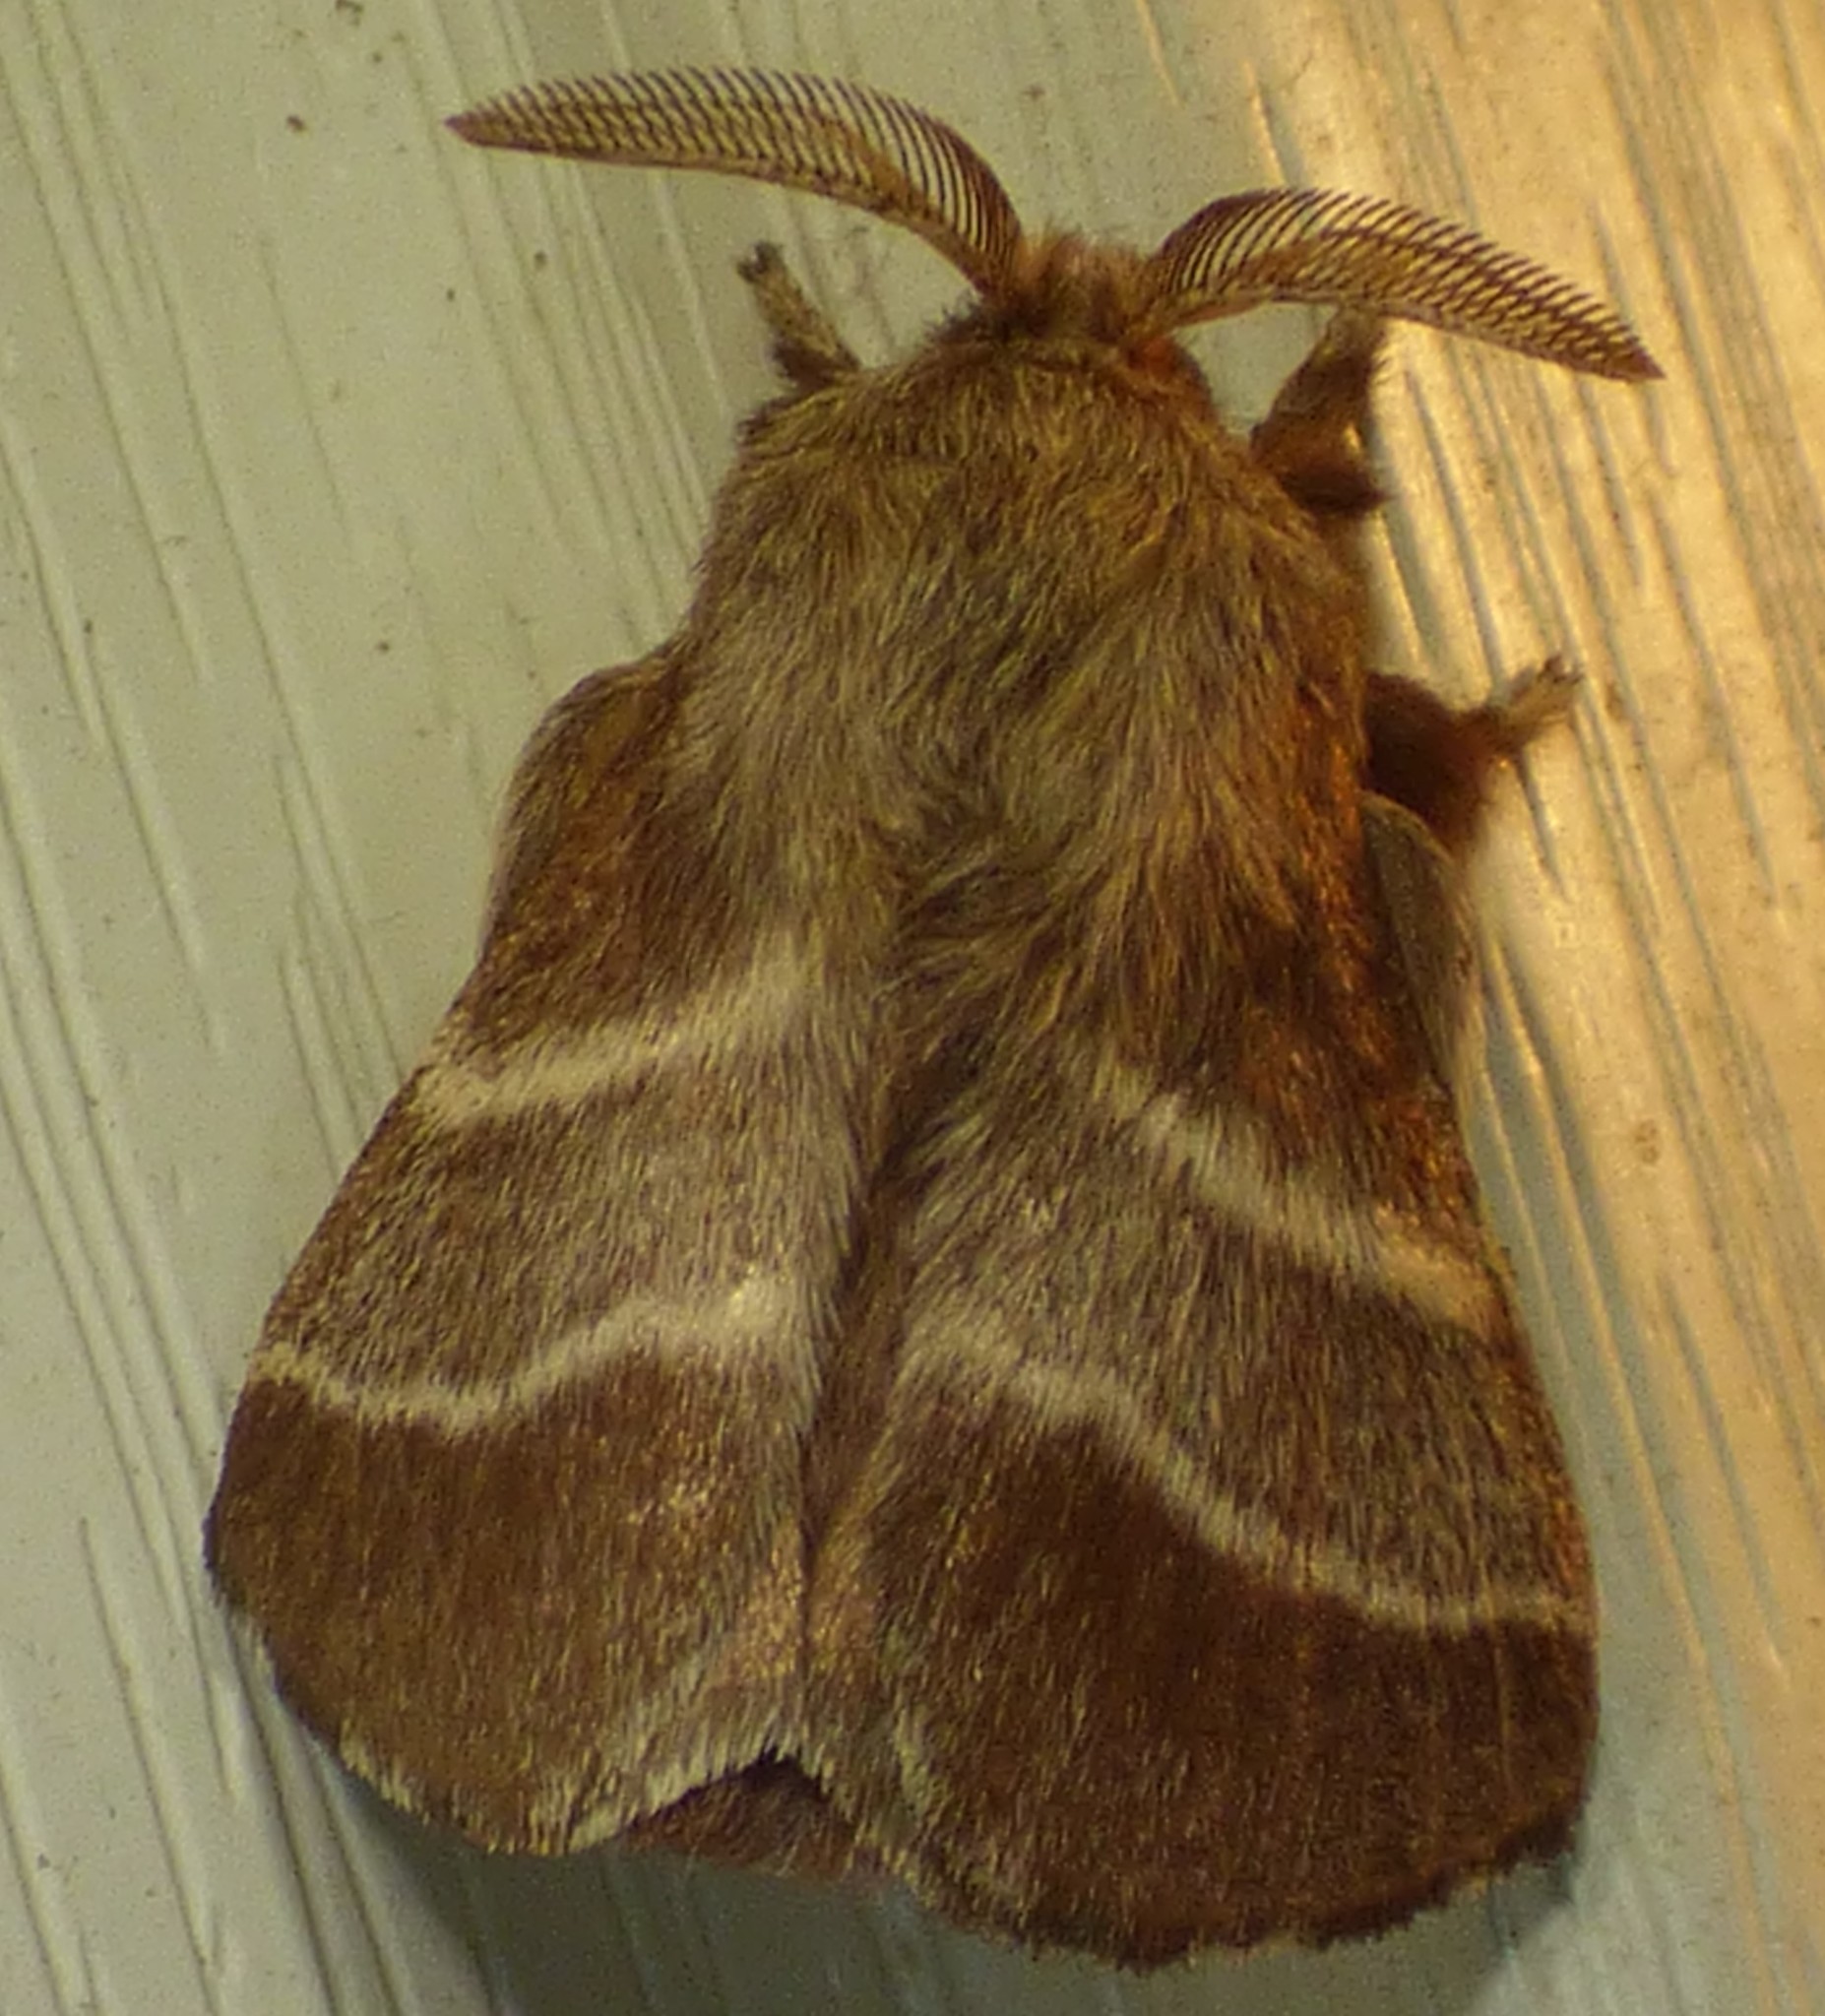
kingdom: Animalia
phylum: Arthropoda
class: Insecta
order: Lepidoptera
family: Lasiocampidae
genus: Malacosoma
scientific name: Malacosoma americana
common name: Eastern tent caterpillar moth
